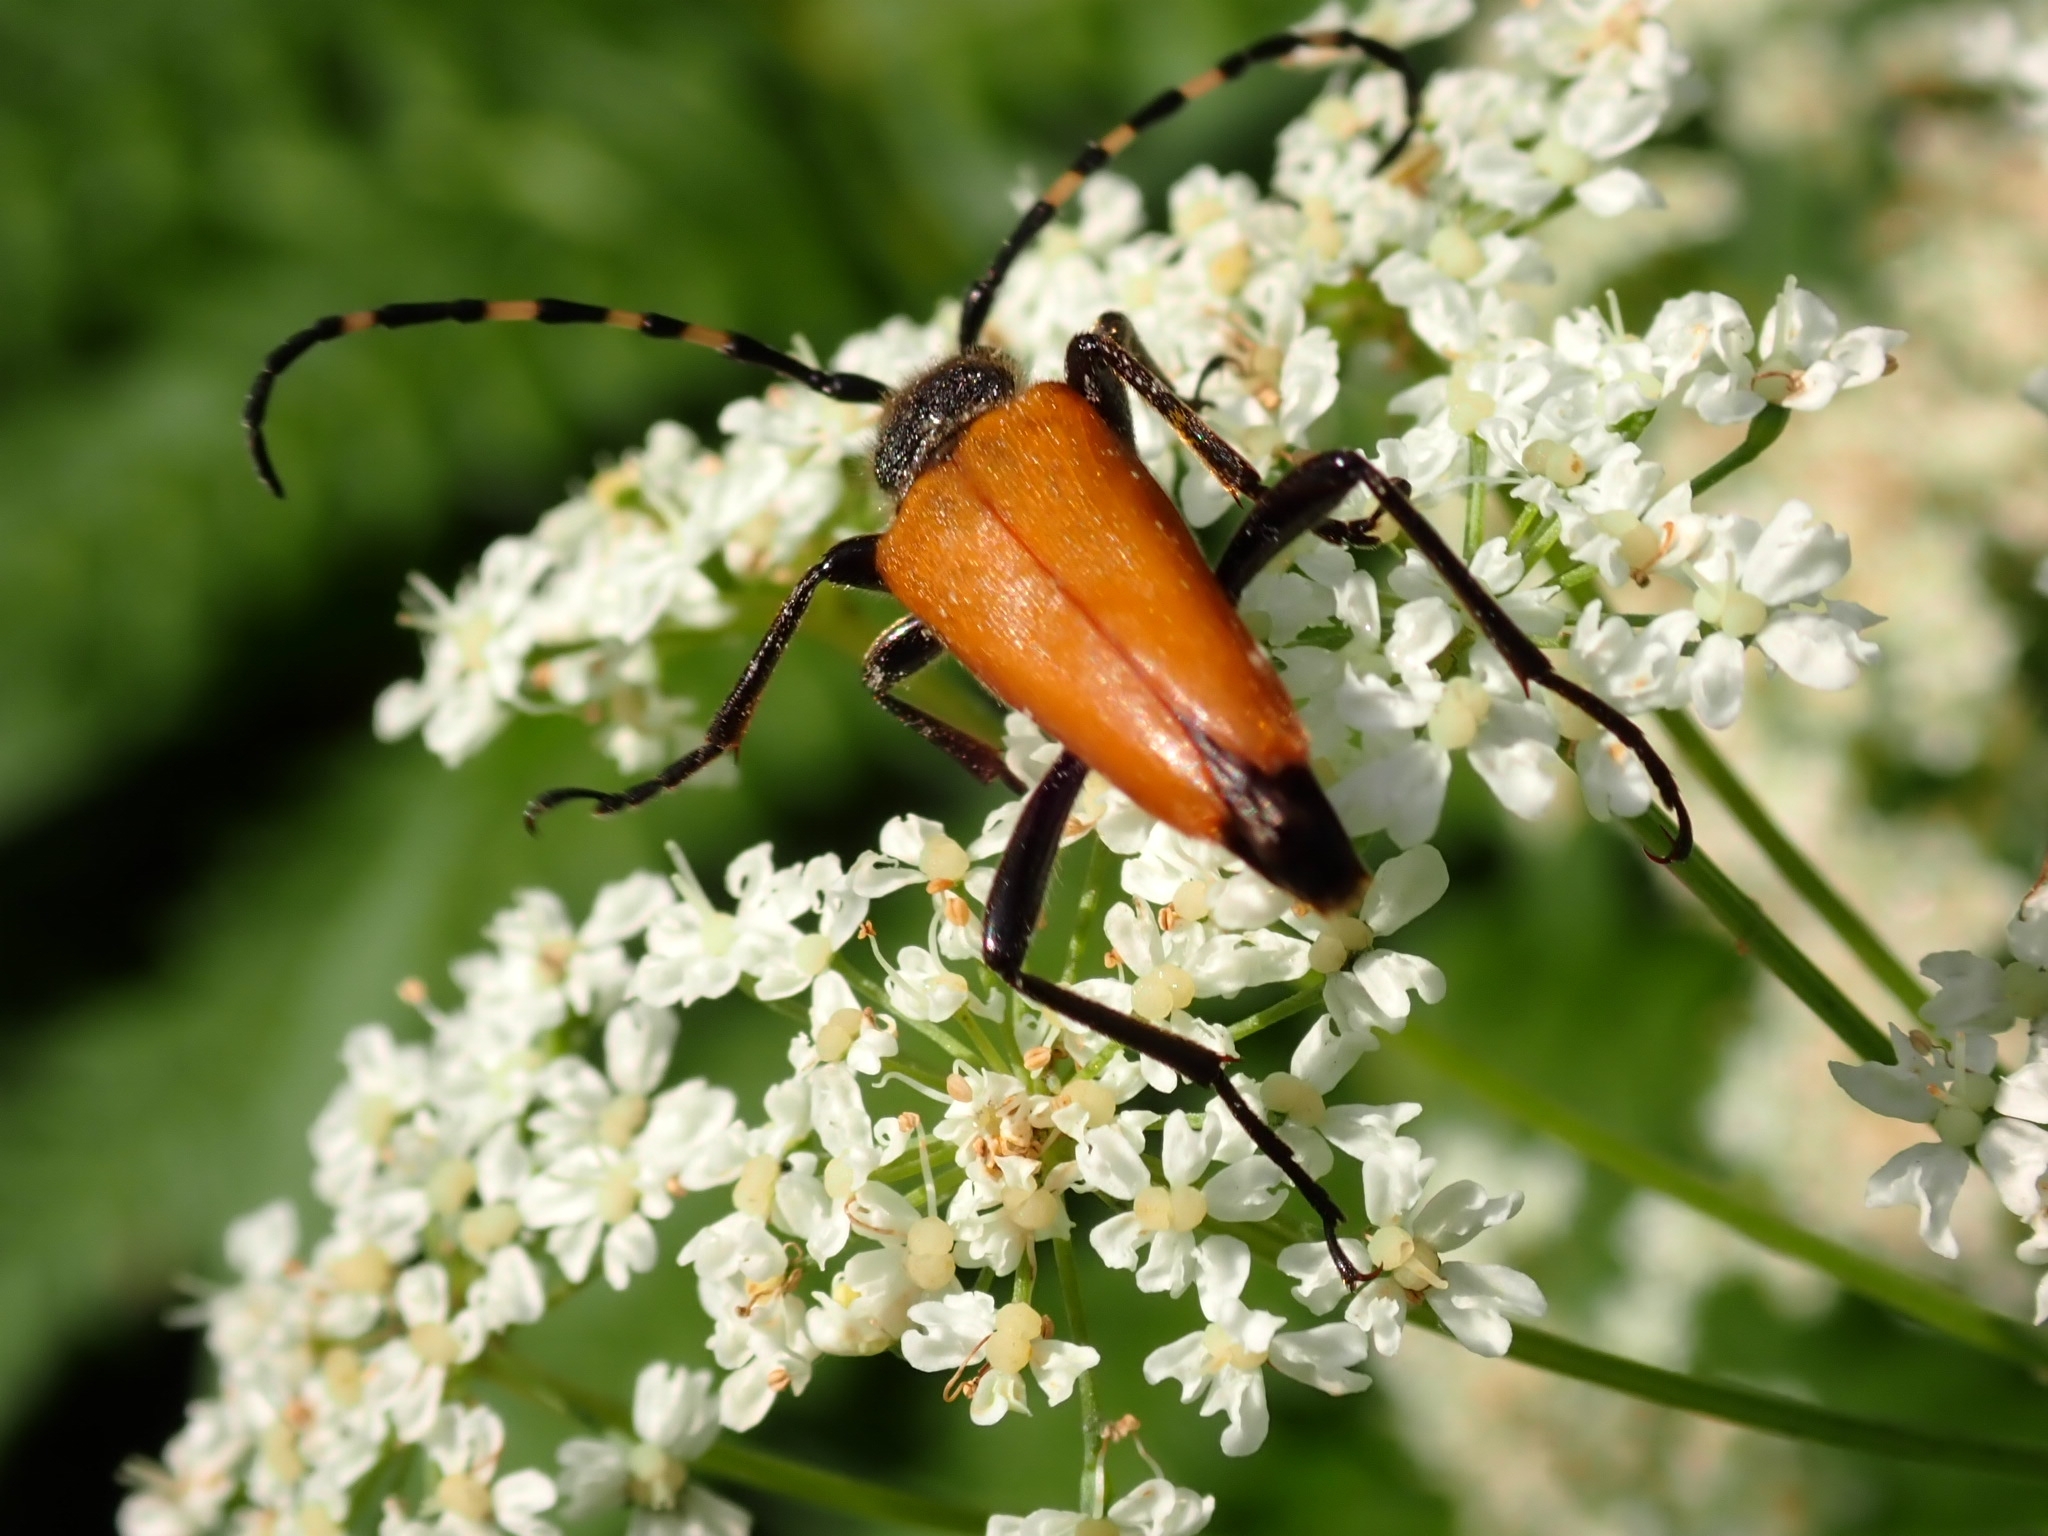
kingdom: Animalia
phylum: Arthropoda
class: Insecta
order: Coleoptera
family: Cerambycidae
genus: Stictoleptura
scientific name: Stictoleptura variicornis
